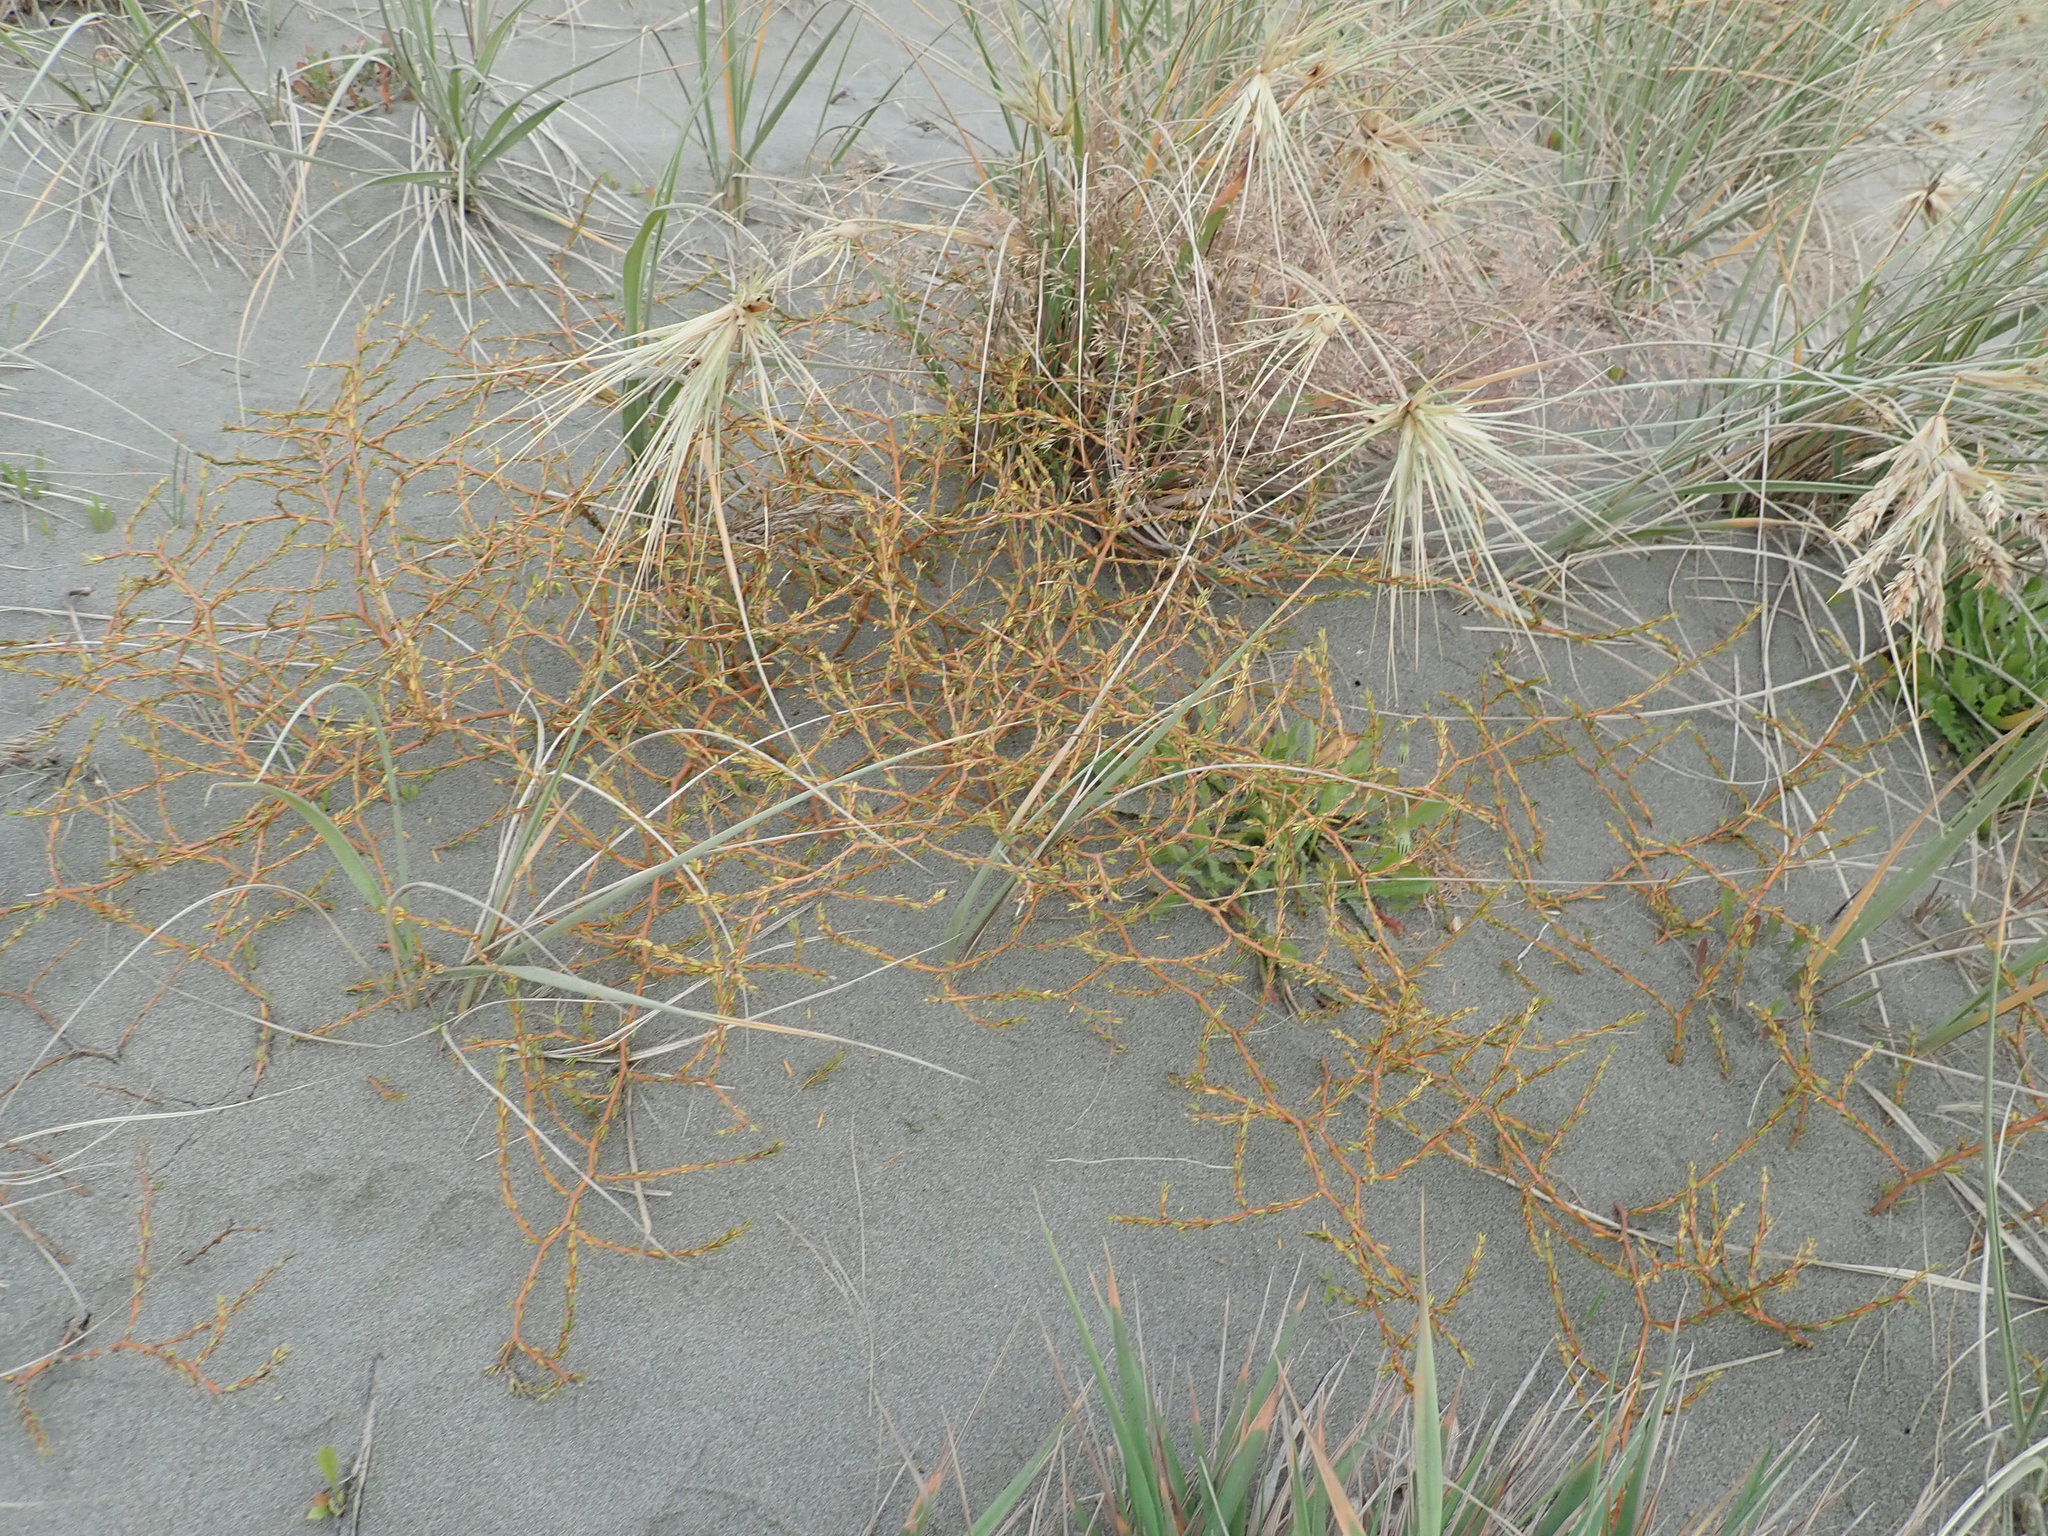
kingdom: Plantae
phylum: Tracheophyta
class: Magnoliopsida
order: Gentianales
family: Rubiaceae
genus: Coprosma
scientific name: Coprosma acerosa
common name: Sand coprosma
